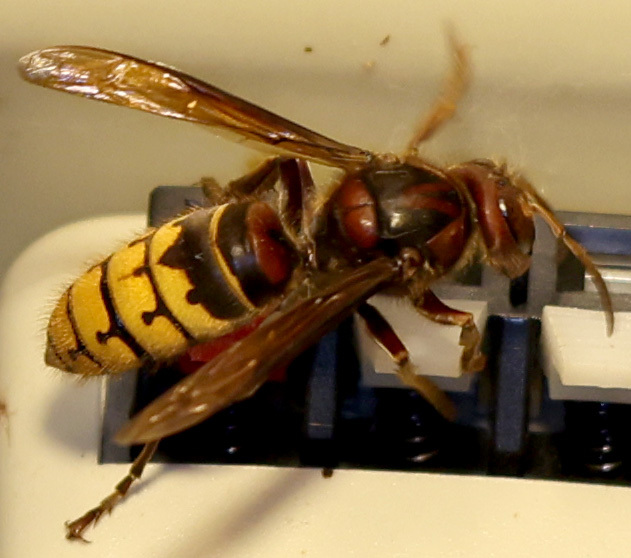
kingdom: Animalia
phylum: Arthropoda
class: Insecta
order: Hymenoptera
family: Vespidae
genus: Vespa
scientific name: Vespa crabro
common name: Hornet
